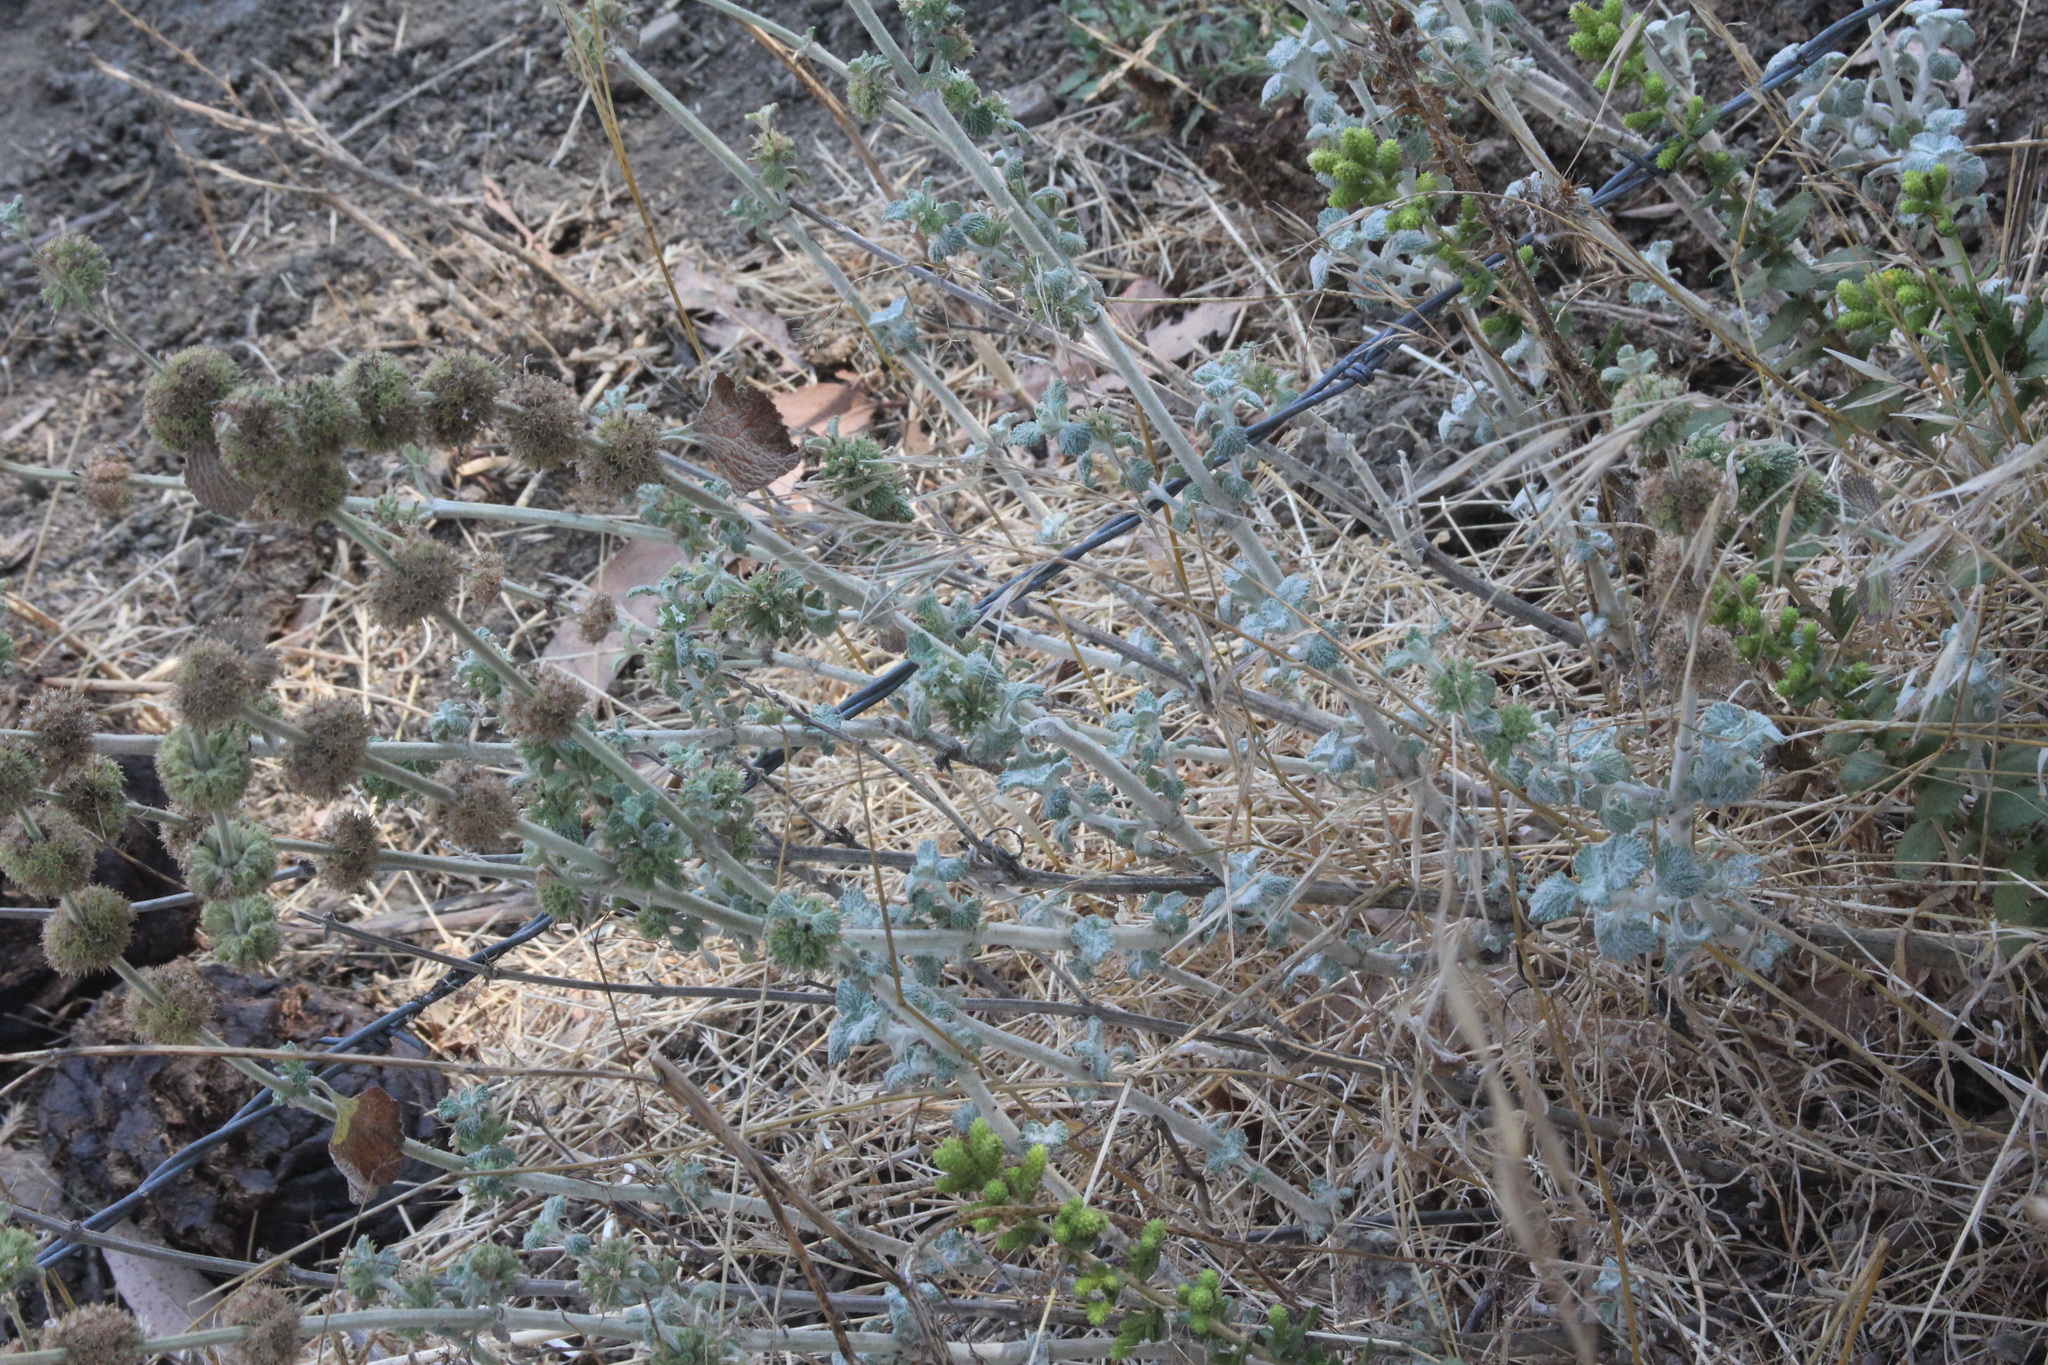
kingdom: Plantae
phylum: Tracheophyta
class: Magnoliopsida
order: Lamiales
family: Lamiaceae
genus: Marrubium
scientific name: Marrubium vulgare
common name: Horehound
